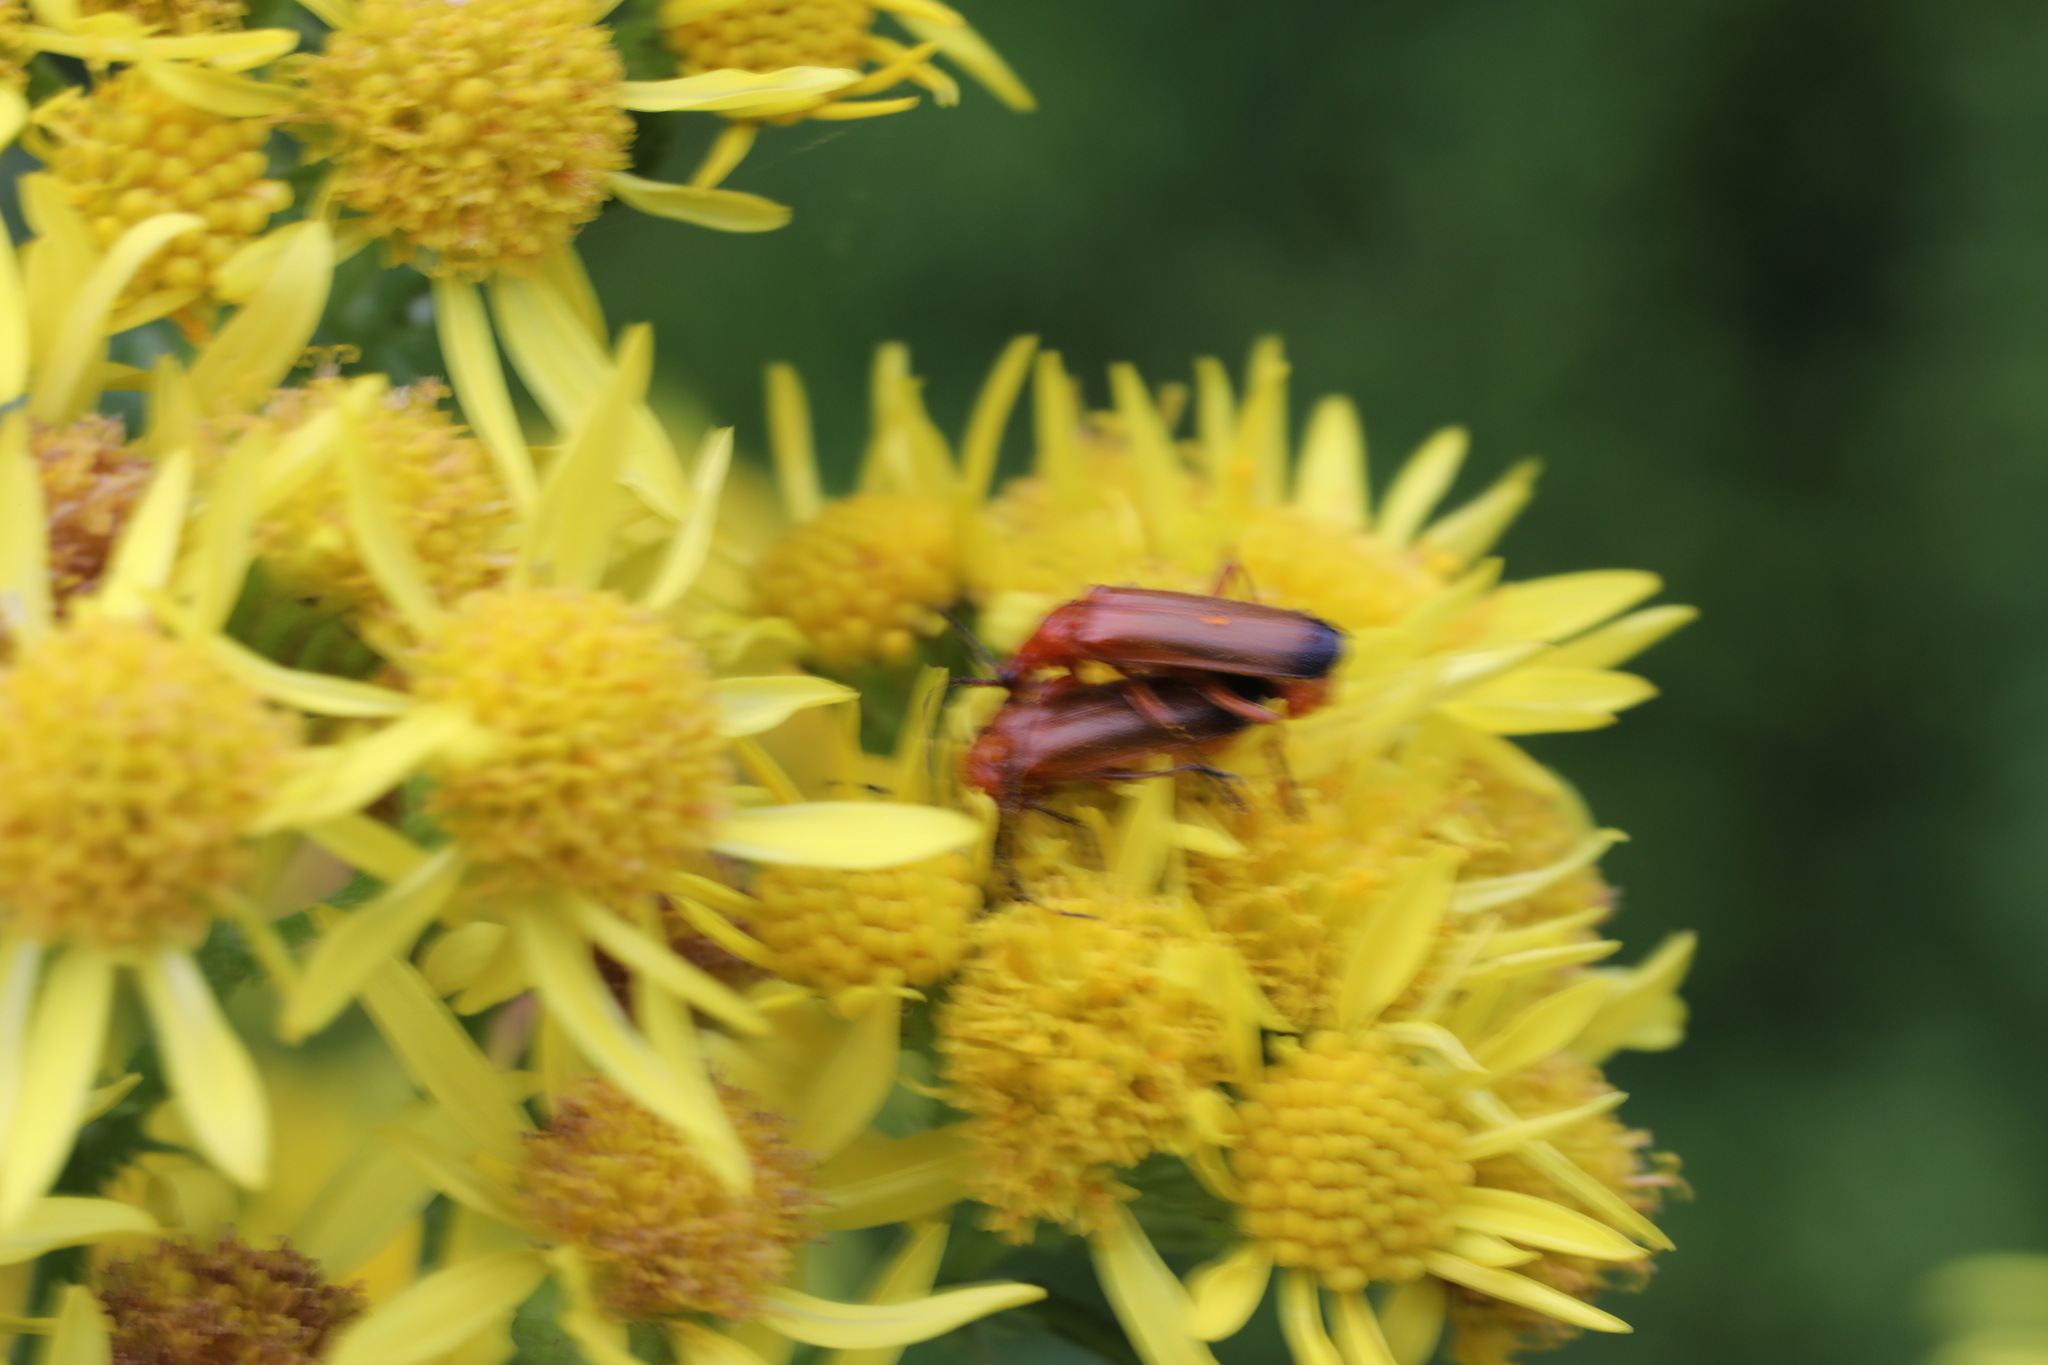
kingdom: Animalia
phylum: Arthropoda
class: Insecta
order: Coleoptera
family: Cantharidae
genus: Rhagonycha
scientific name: Rhagonycha fulva
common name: Common red soldier beetle
